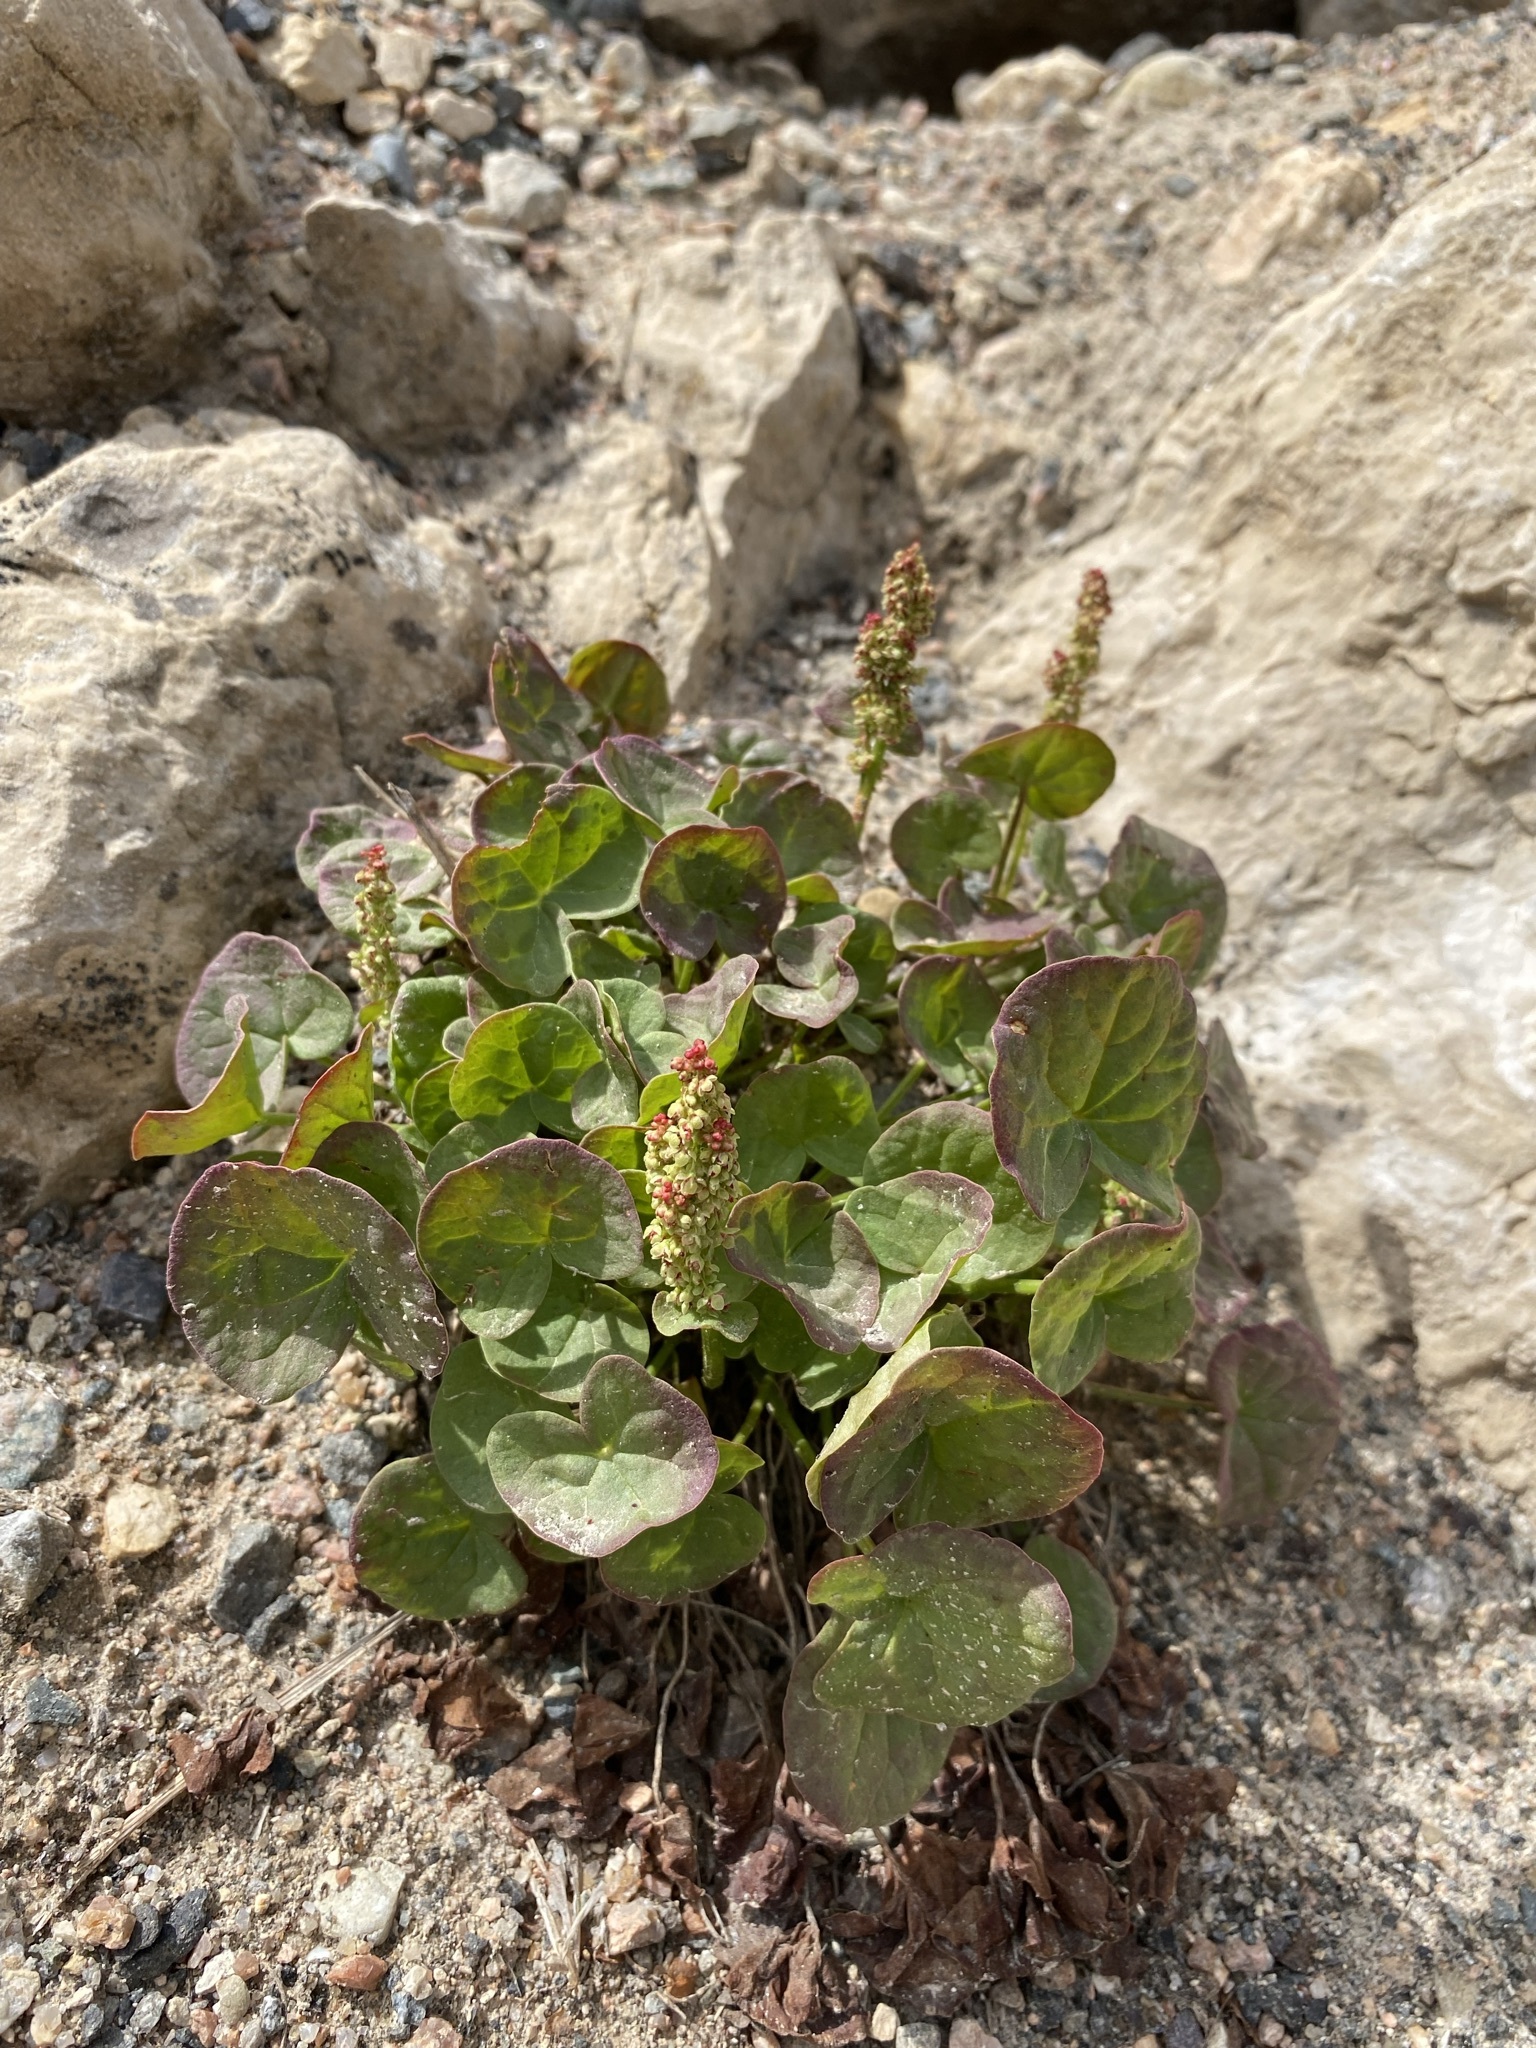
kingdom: Plantae
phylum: Tracheophyta
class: Magnoliopsida
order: Caryophyllales
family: Polygonaceae
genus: Oxyria
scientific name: Oxyria digyna
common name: Alpine mountain-sorrel
